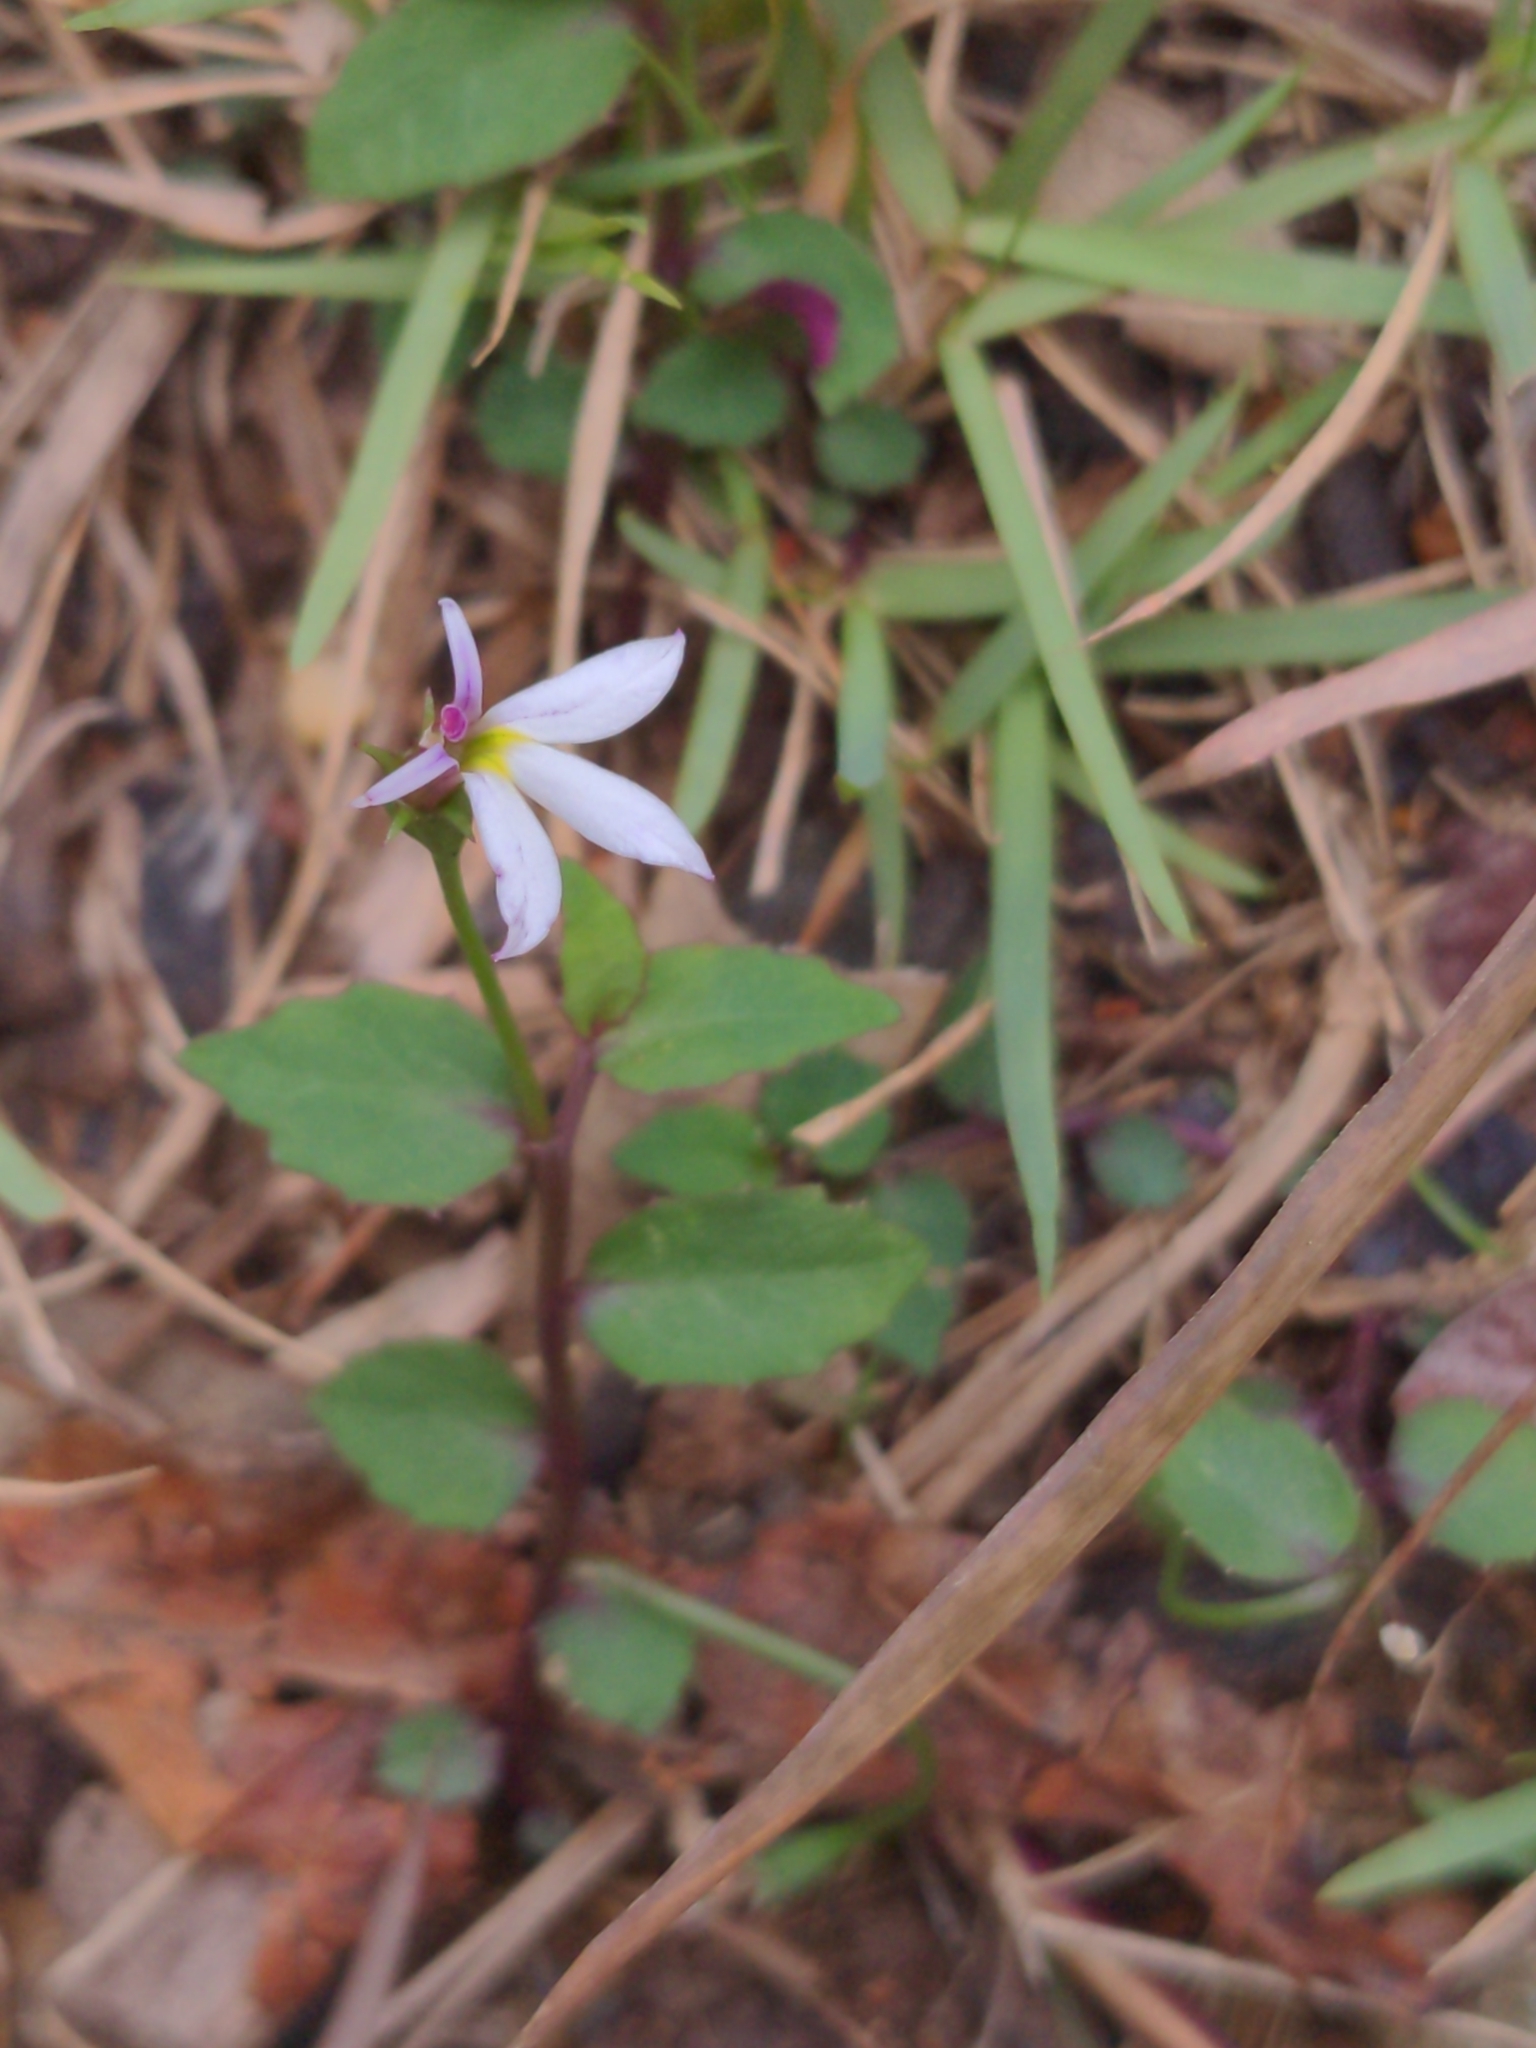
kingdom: Plantae
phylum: Tracheophyta
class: Magnoliopsida
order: Asterales
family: Campanulaceae
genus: Lobelia
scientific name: Lobelia purpurascens
